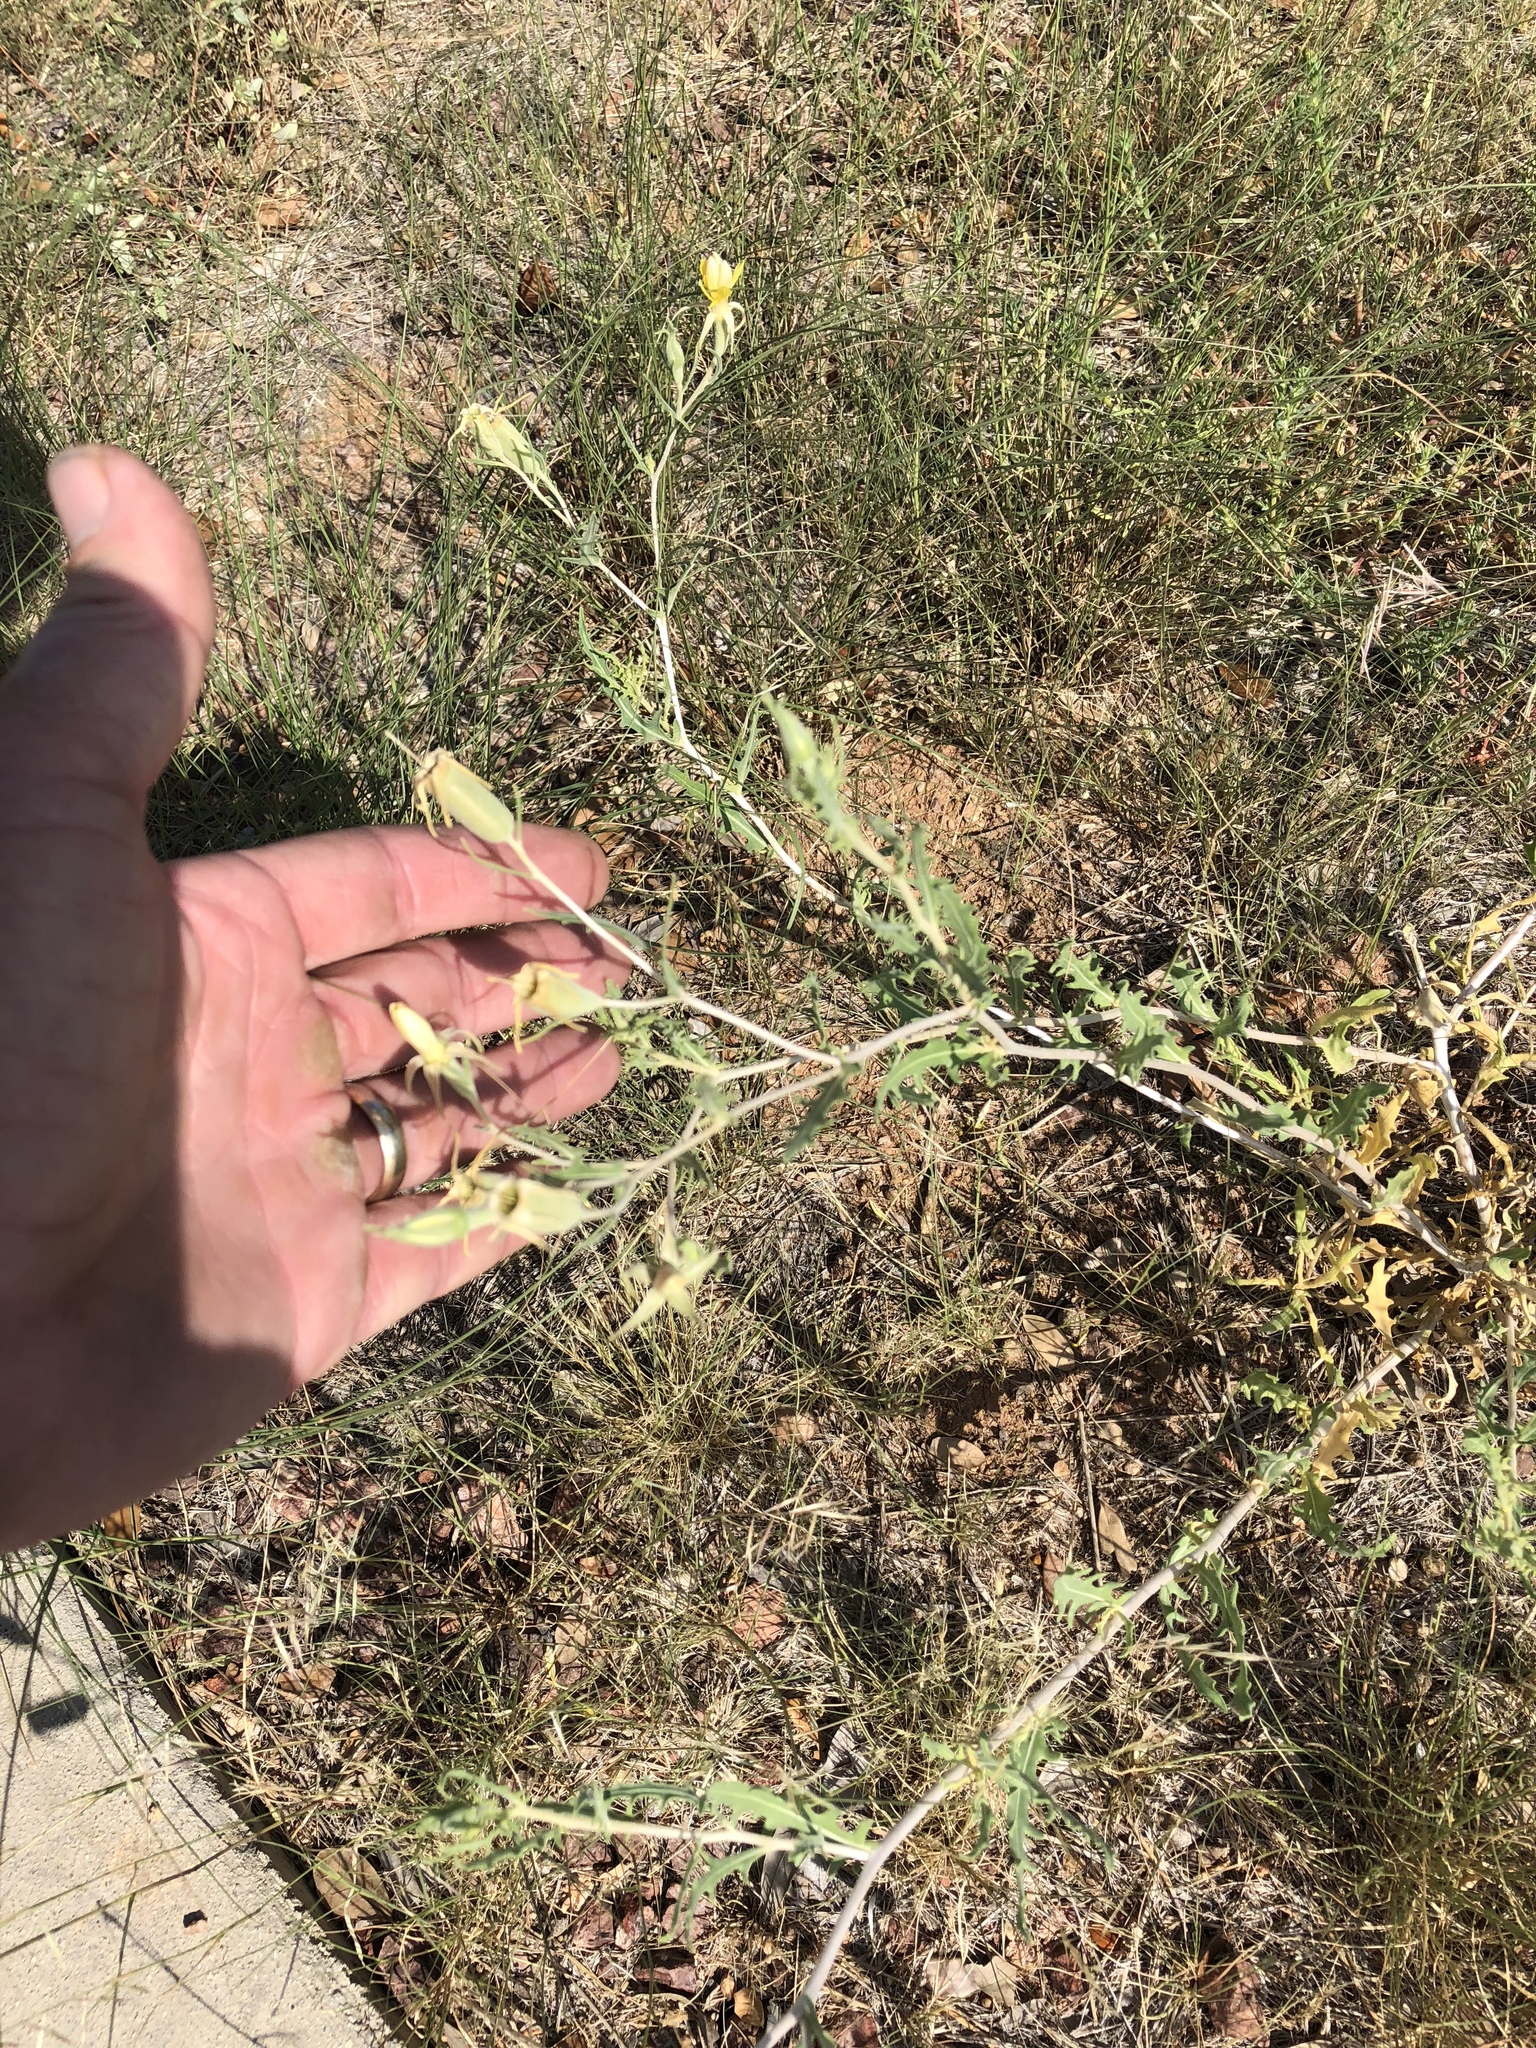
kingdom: Plantae
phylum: Tracheophyta
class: Magnoliopsida
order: Cornales
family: Loasaceae
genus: Mentzelia
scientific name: Mentzelia longiloba
